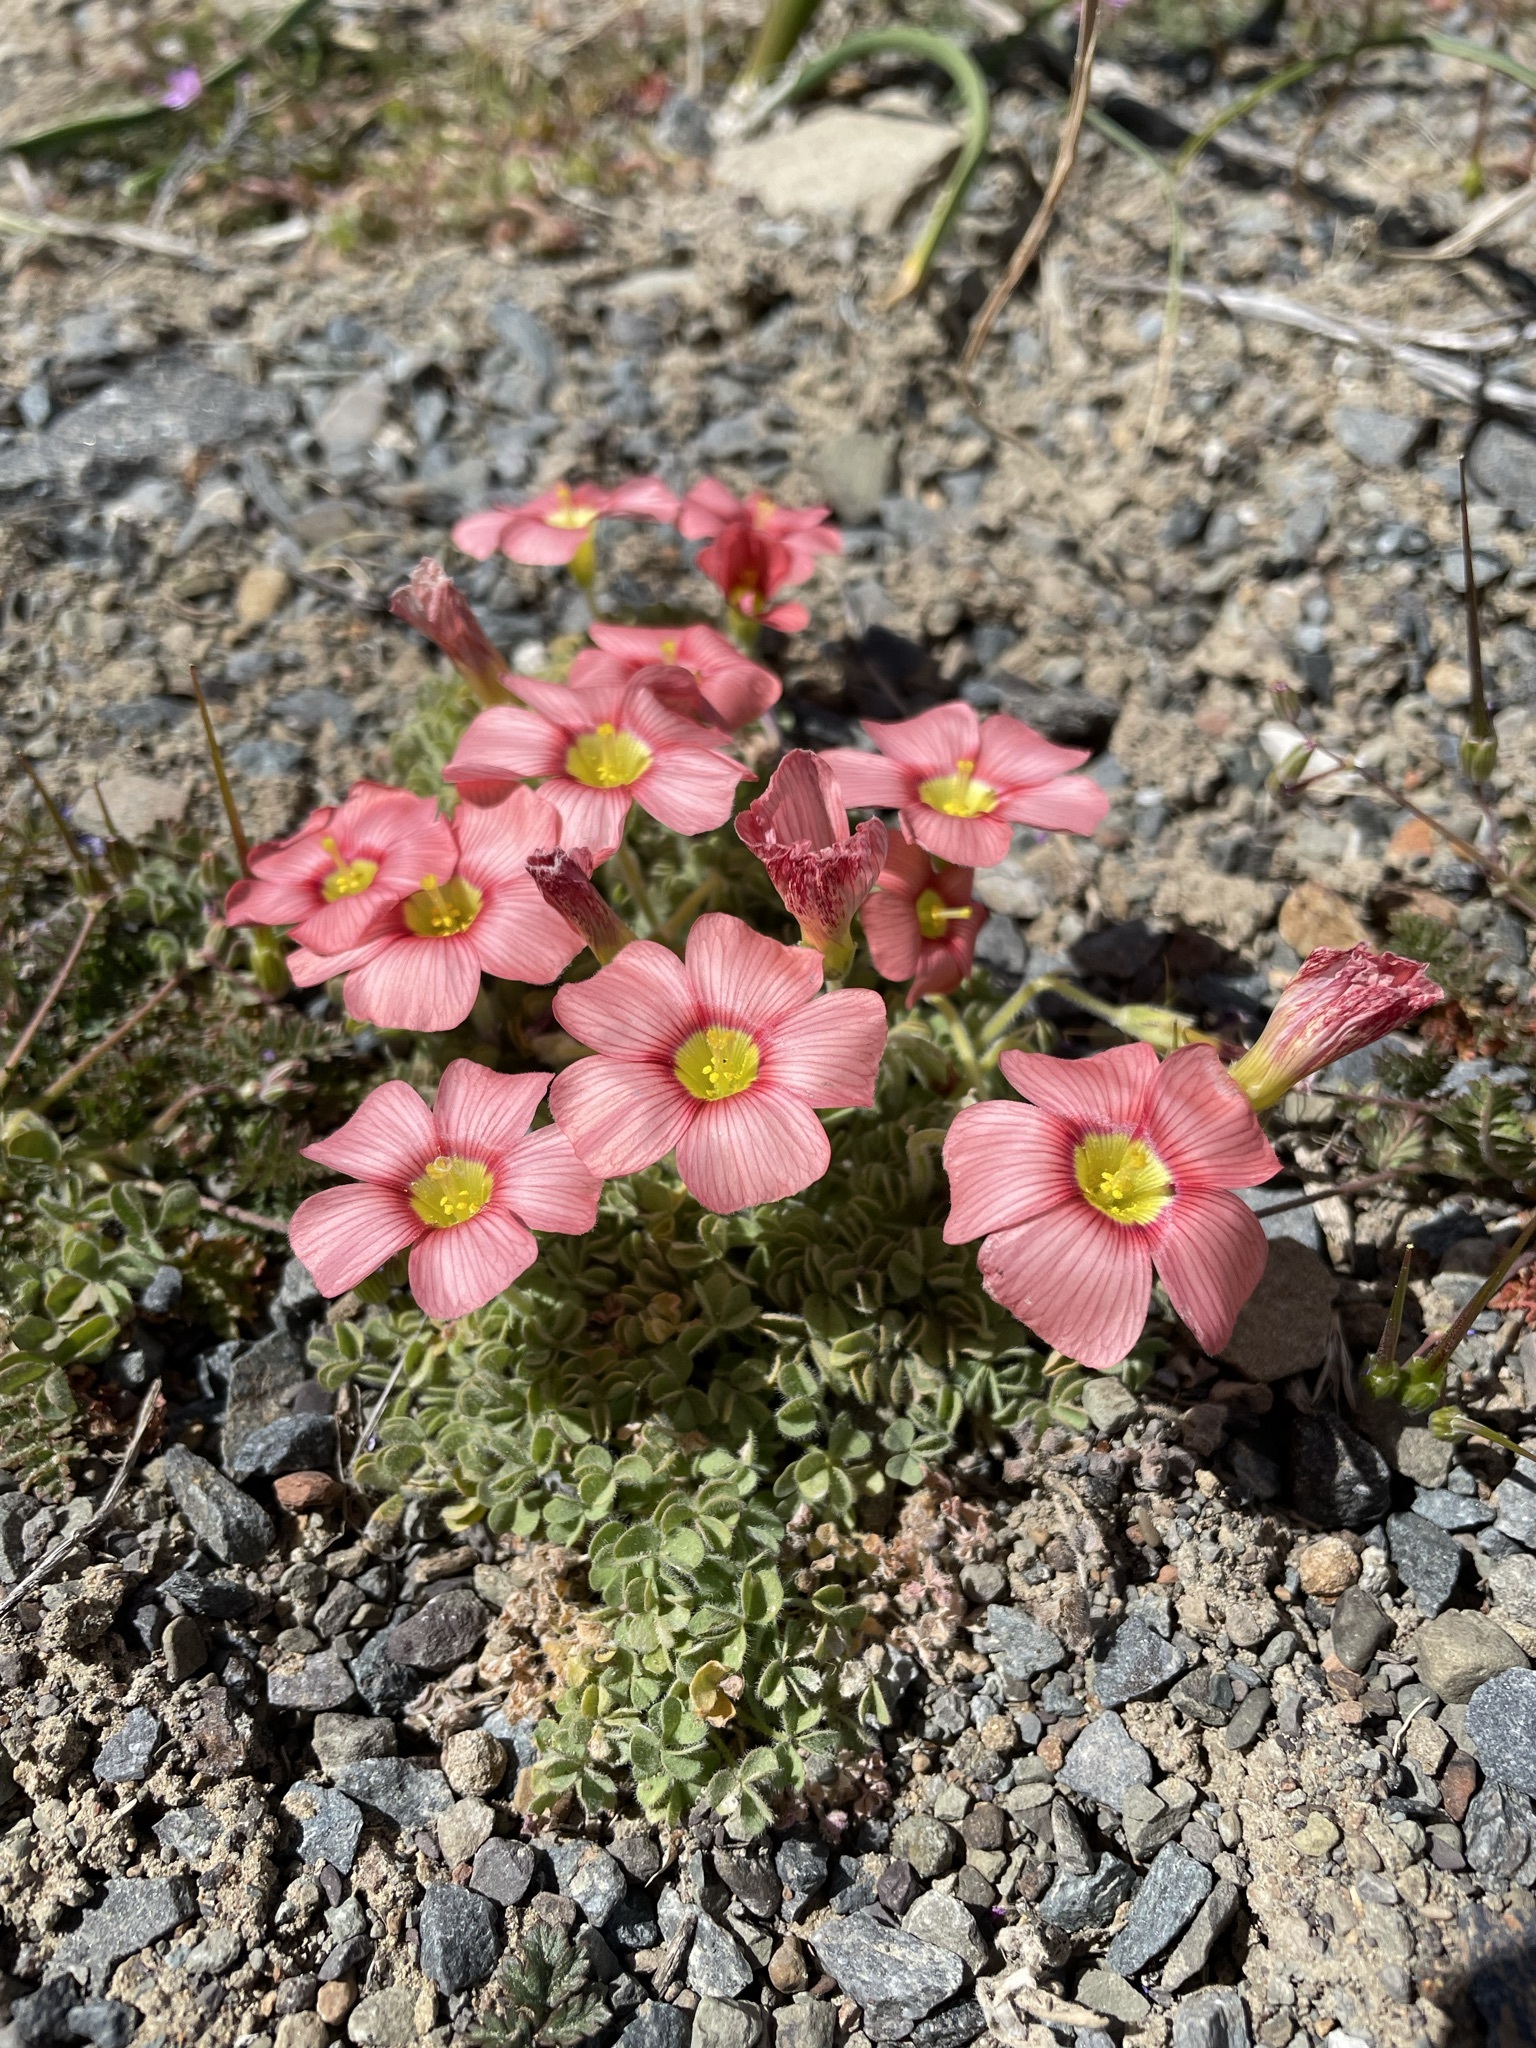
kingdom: Plantae
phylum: Tracheophyta
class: Magnoliopsida
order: Oxalidales
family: Oxalidaceae
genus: Oxalis
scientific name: Oxalis obtusa
